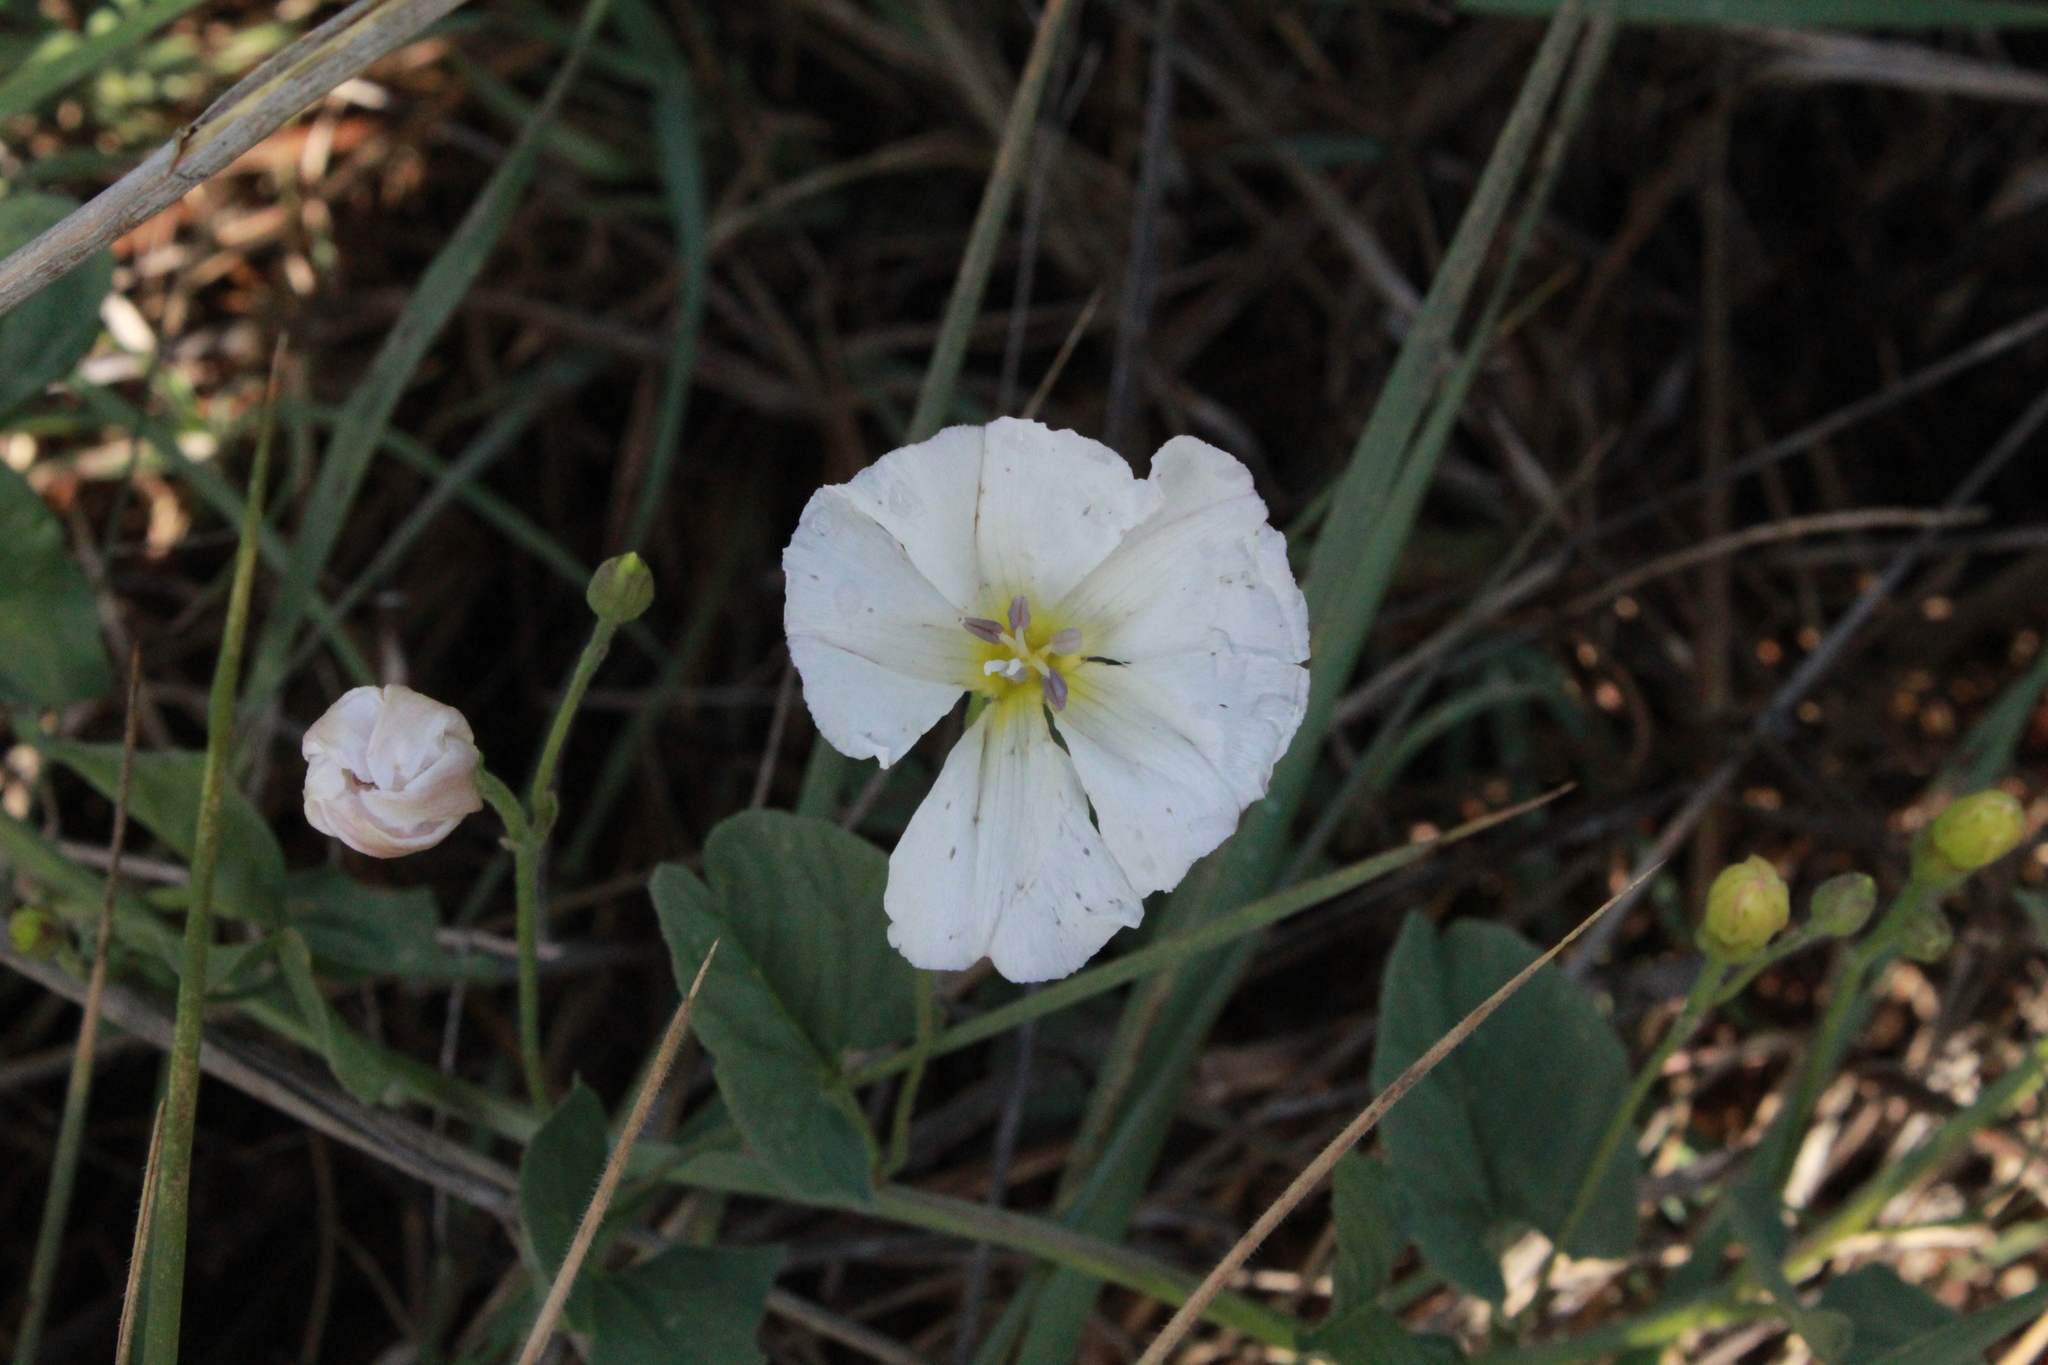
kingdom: Plantae
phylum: Tracheophyta
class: Magnoliopsida
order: Solanales
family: Convolvulaceae
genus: Convolvulus
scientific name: Convolvulus arvensis
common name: Field bindweed
